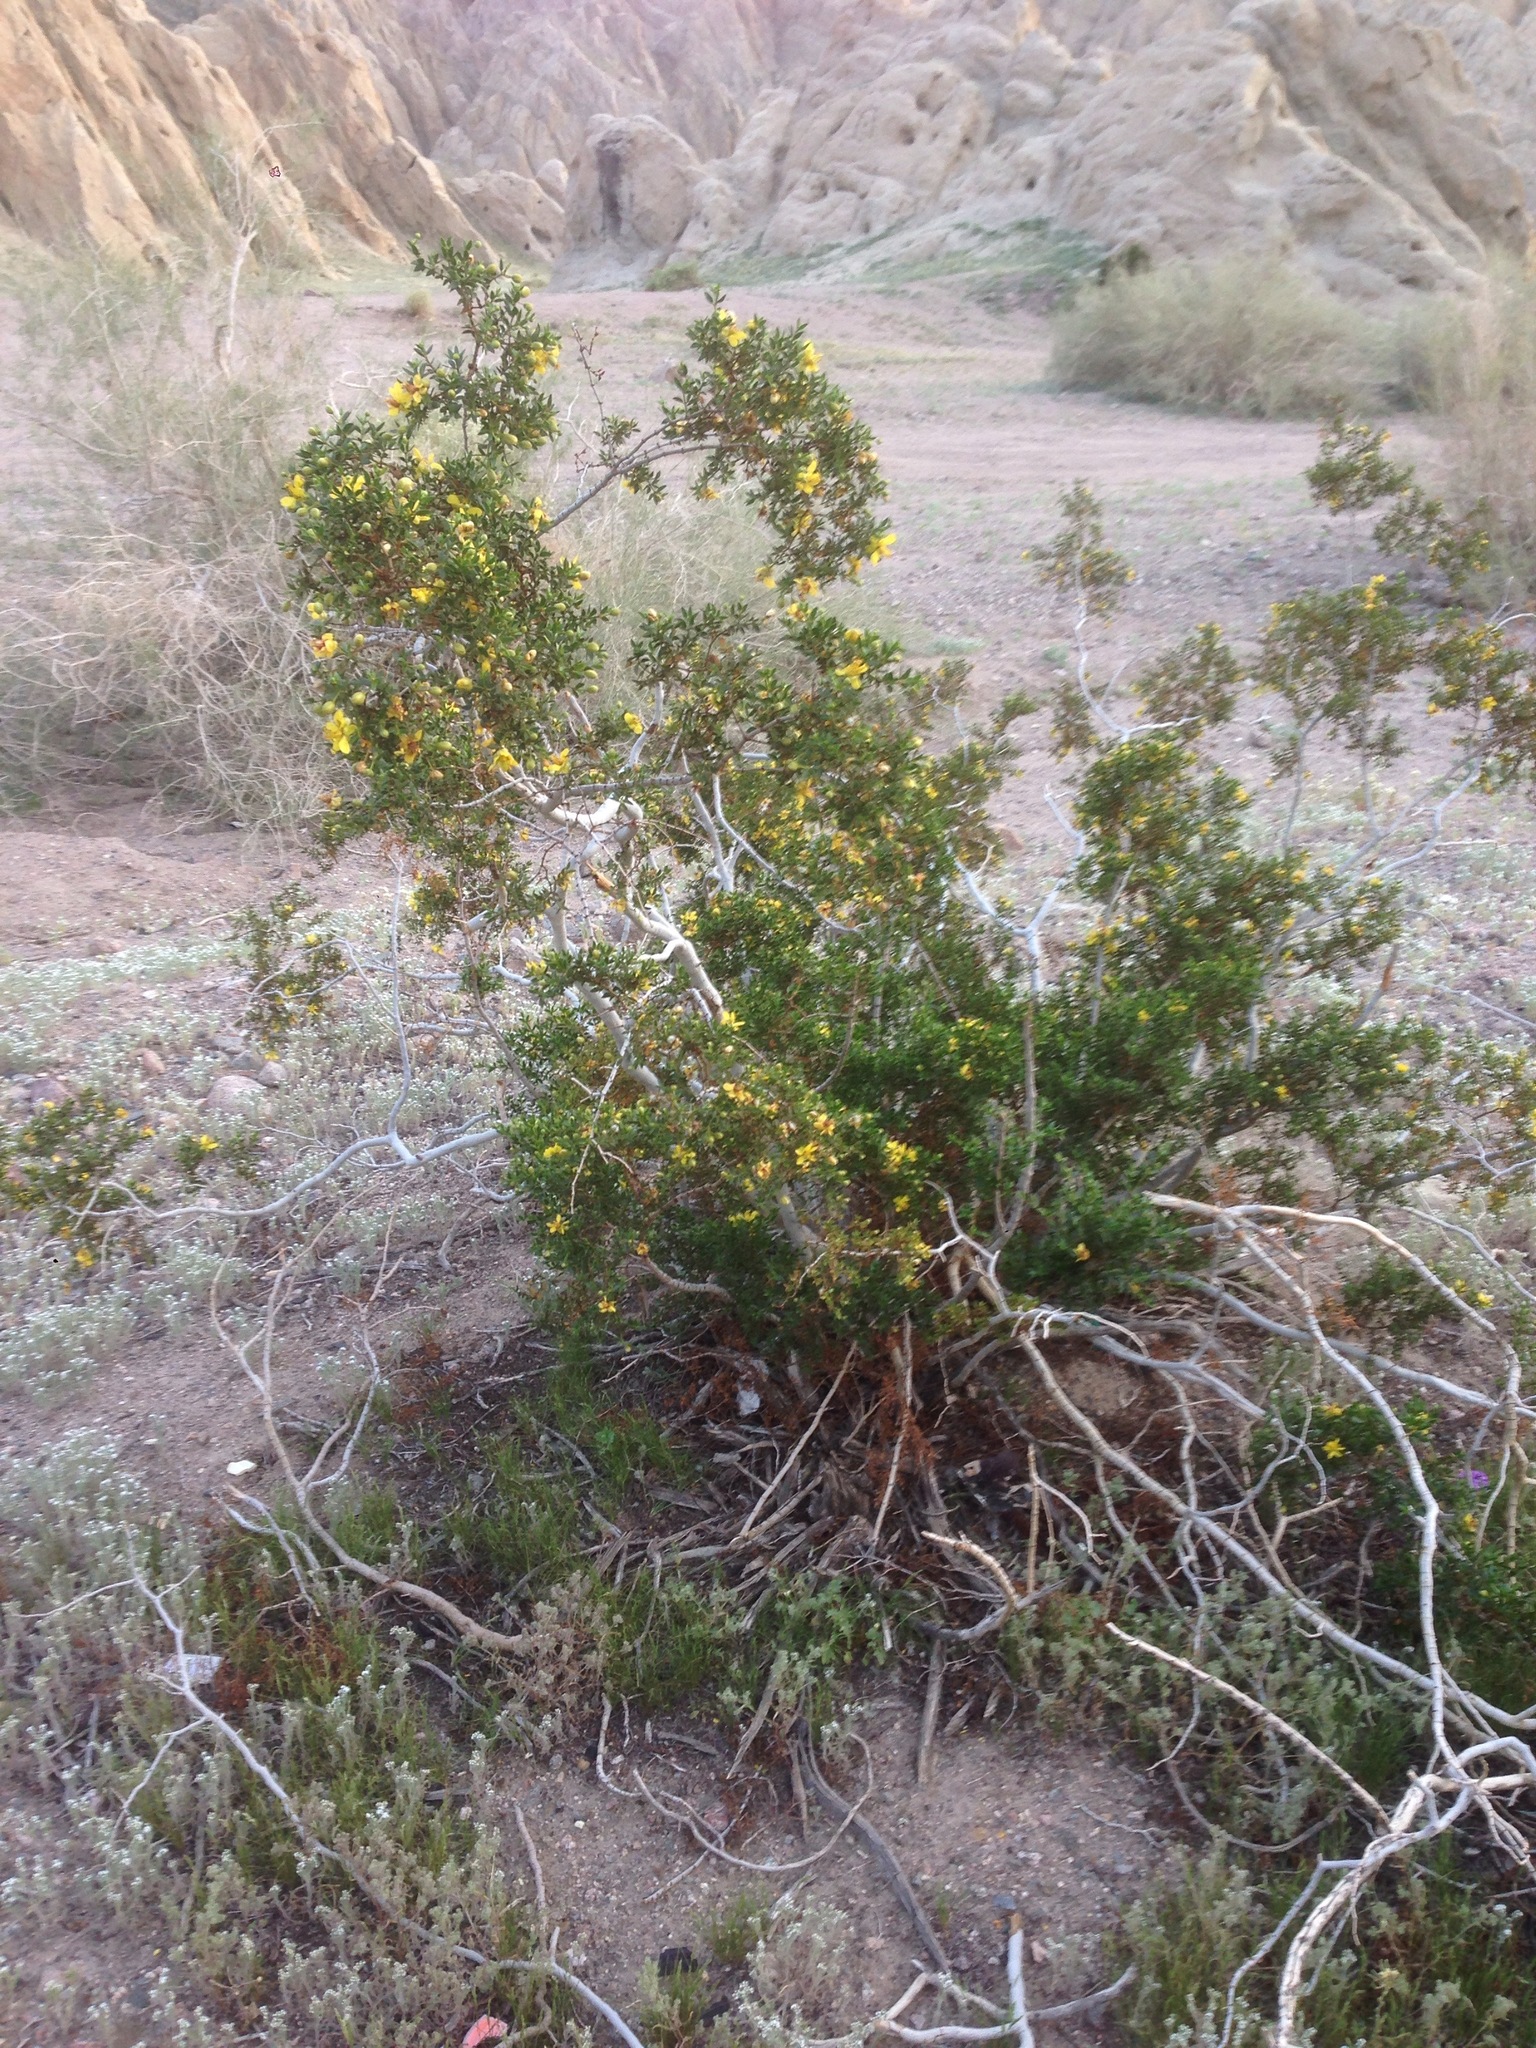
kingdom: Plantae
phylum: Tracheophyta
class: Magnoliopsida
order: Zygophyllales
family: Zygophyllaceae
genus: Larrea
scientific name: Larrea tridentata
